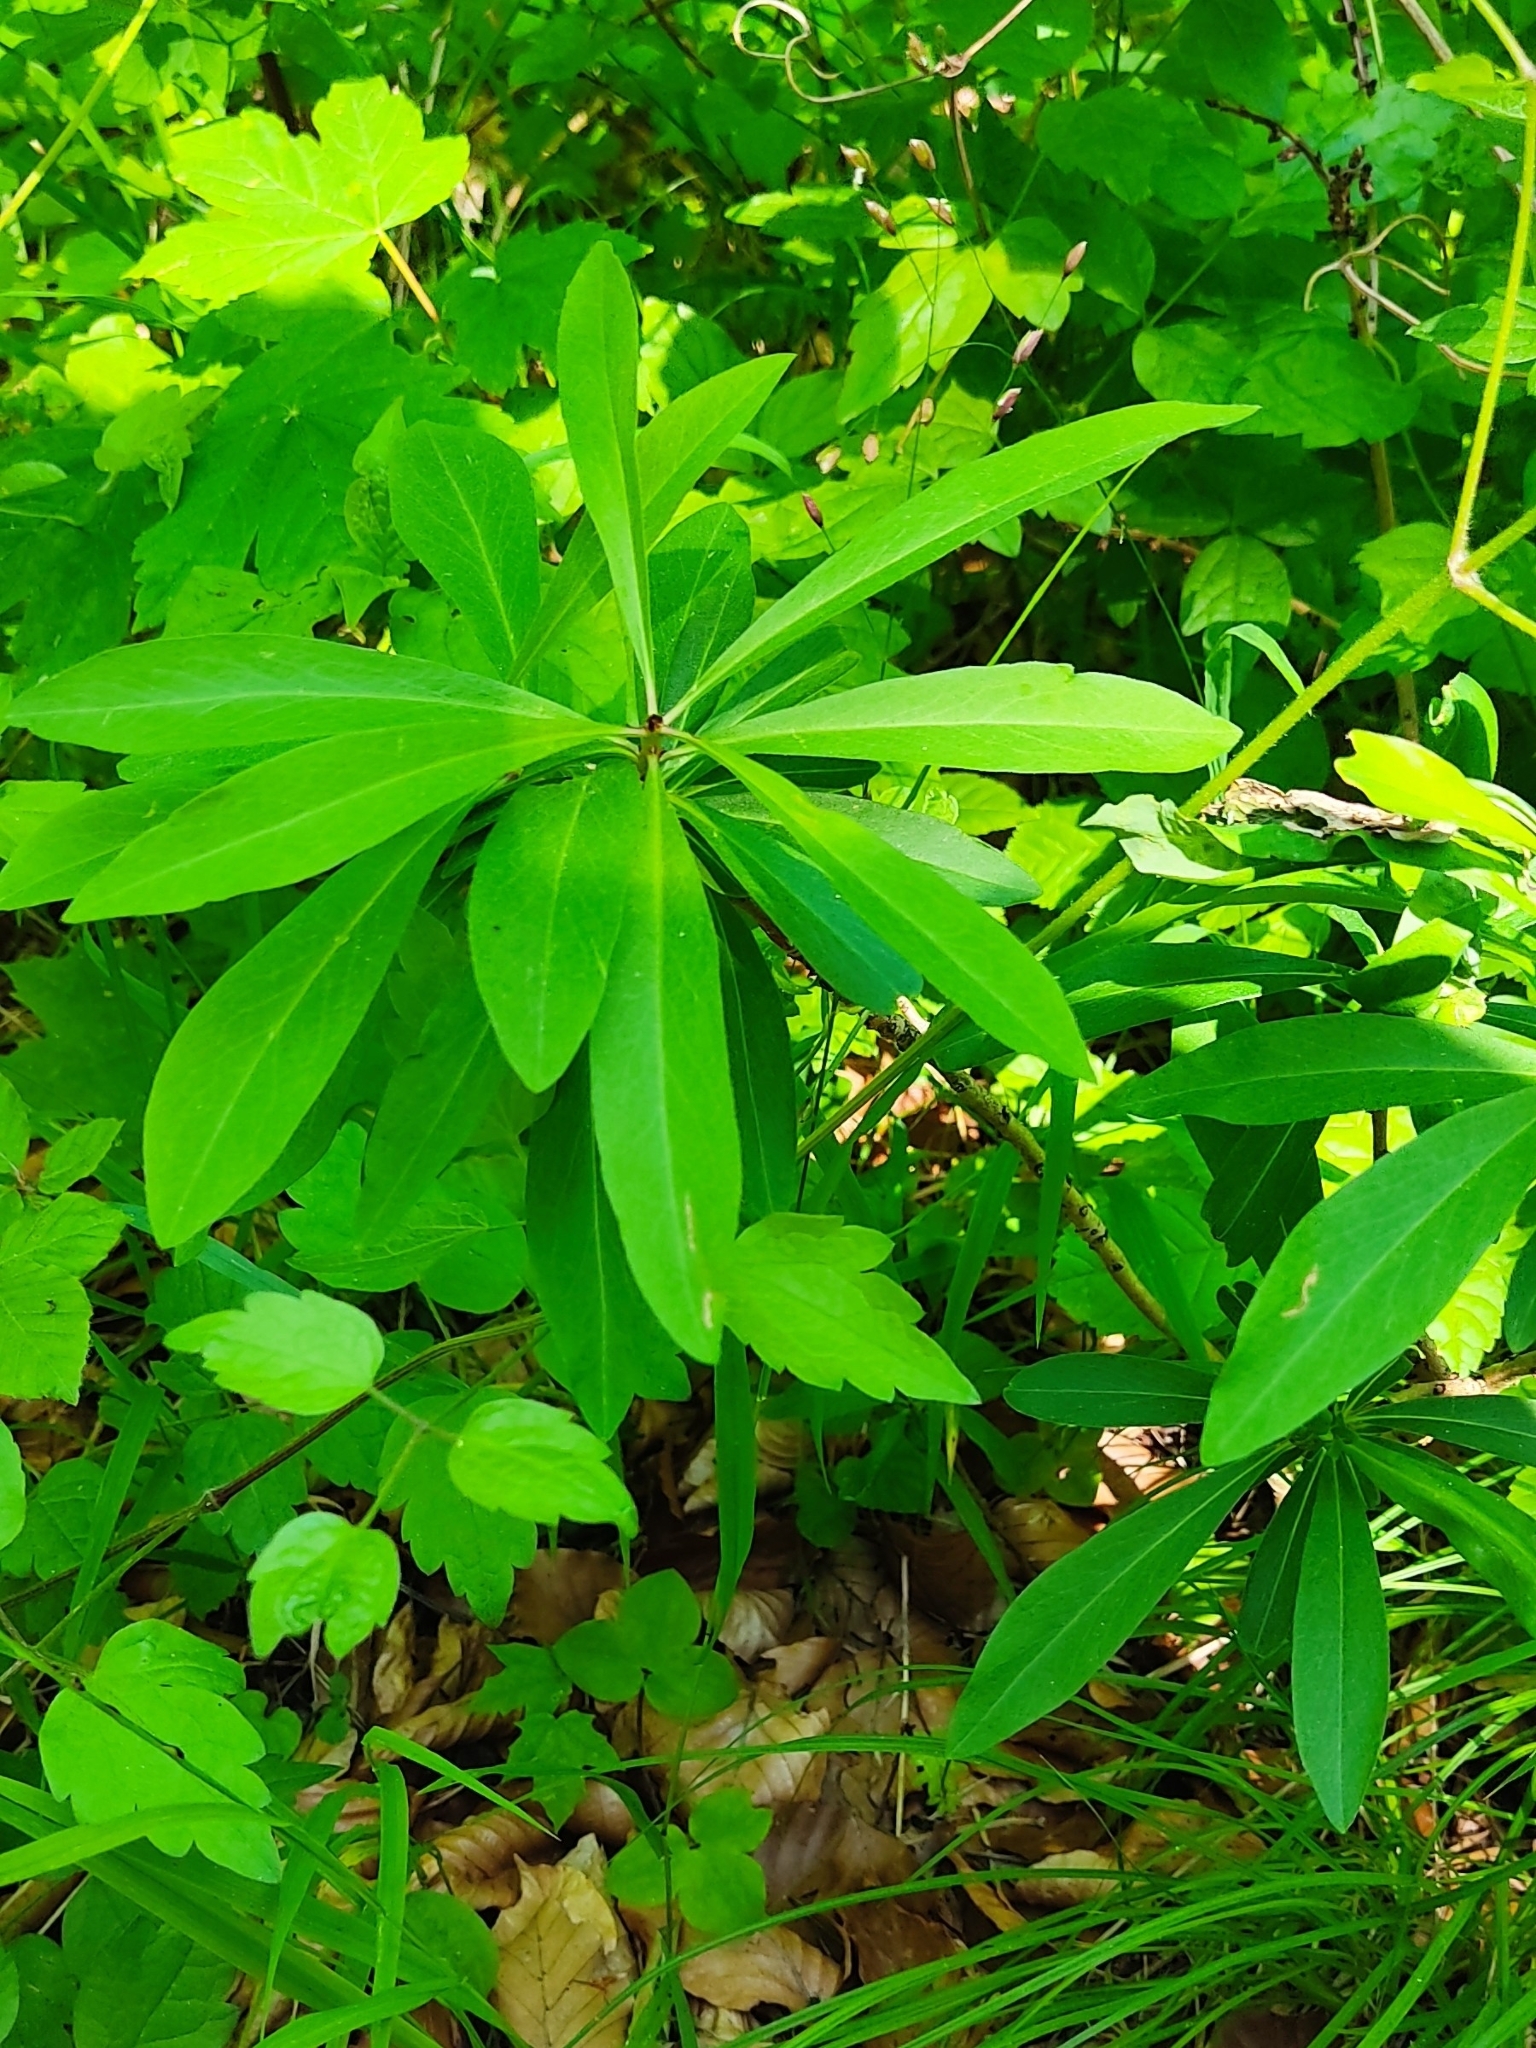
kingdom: Plantae
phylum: Tracheophyta
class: Magnoliopsida
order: Malvales
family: Thymelaeaceae
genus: Daphne
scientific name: Daphne mezereum
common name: Mezereon
